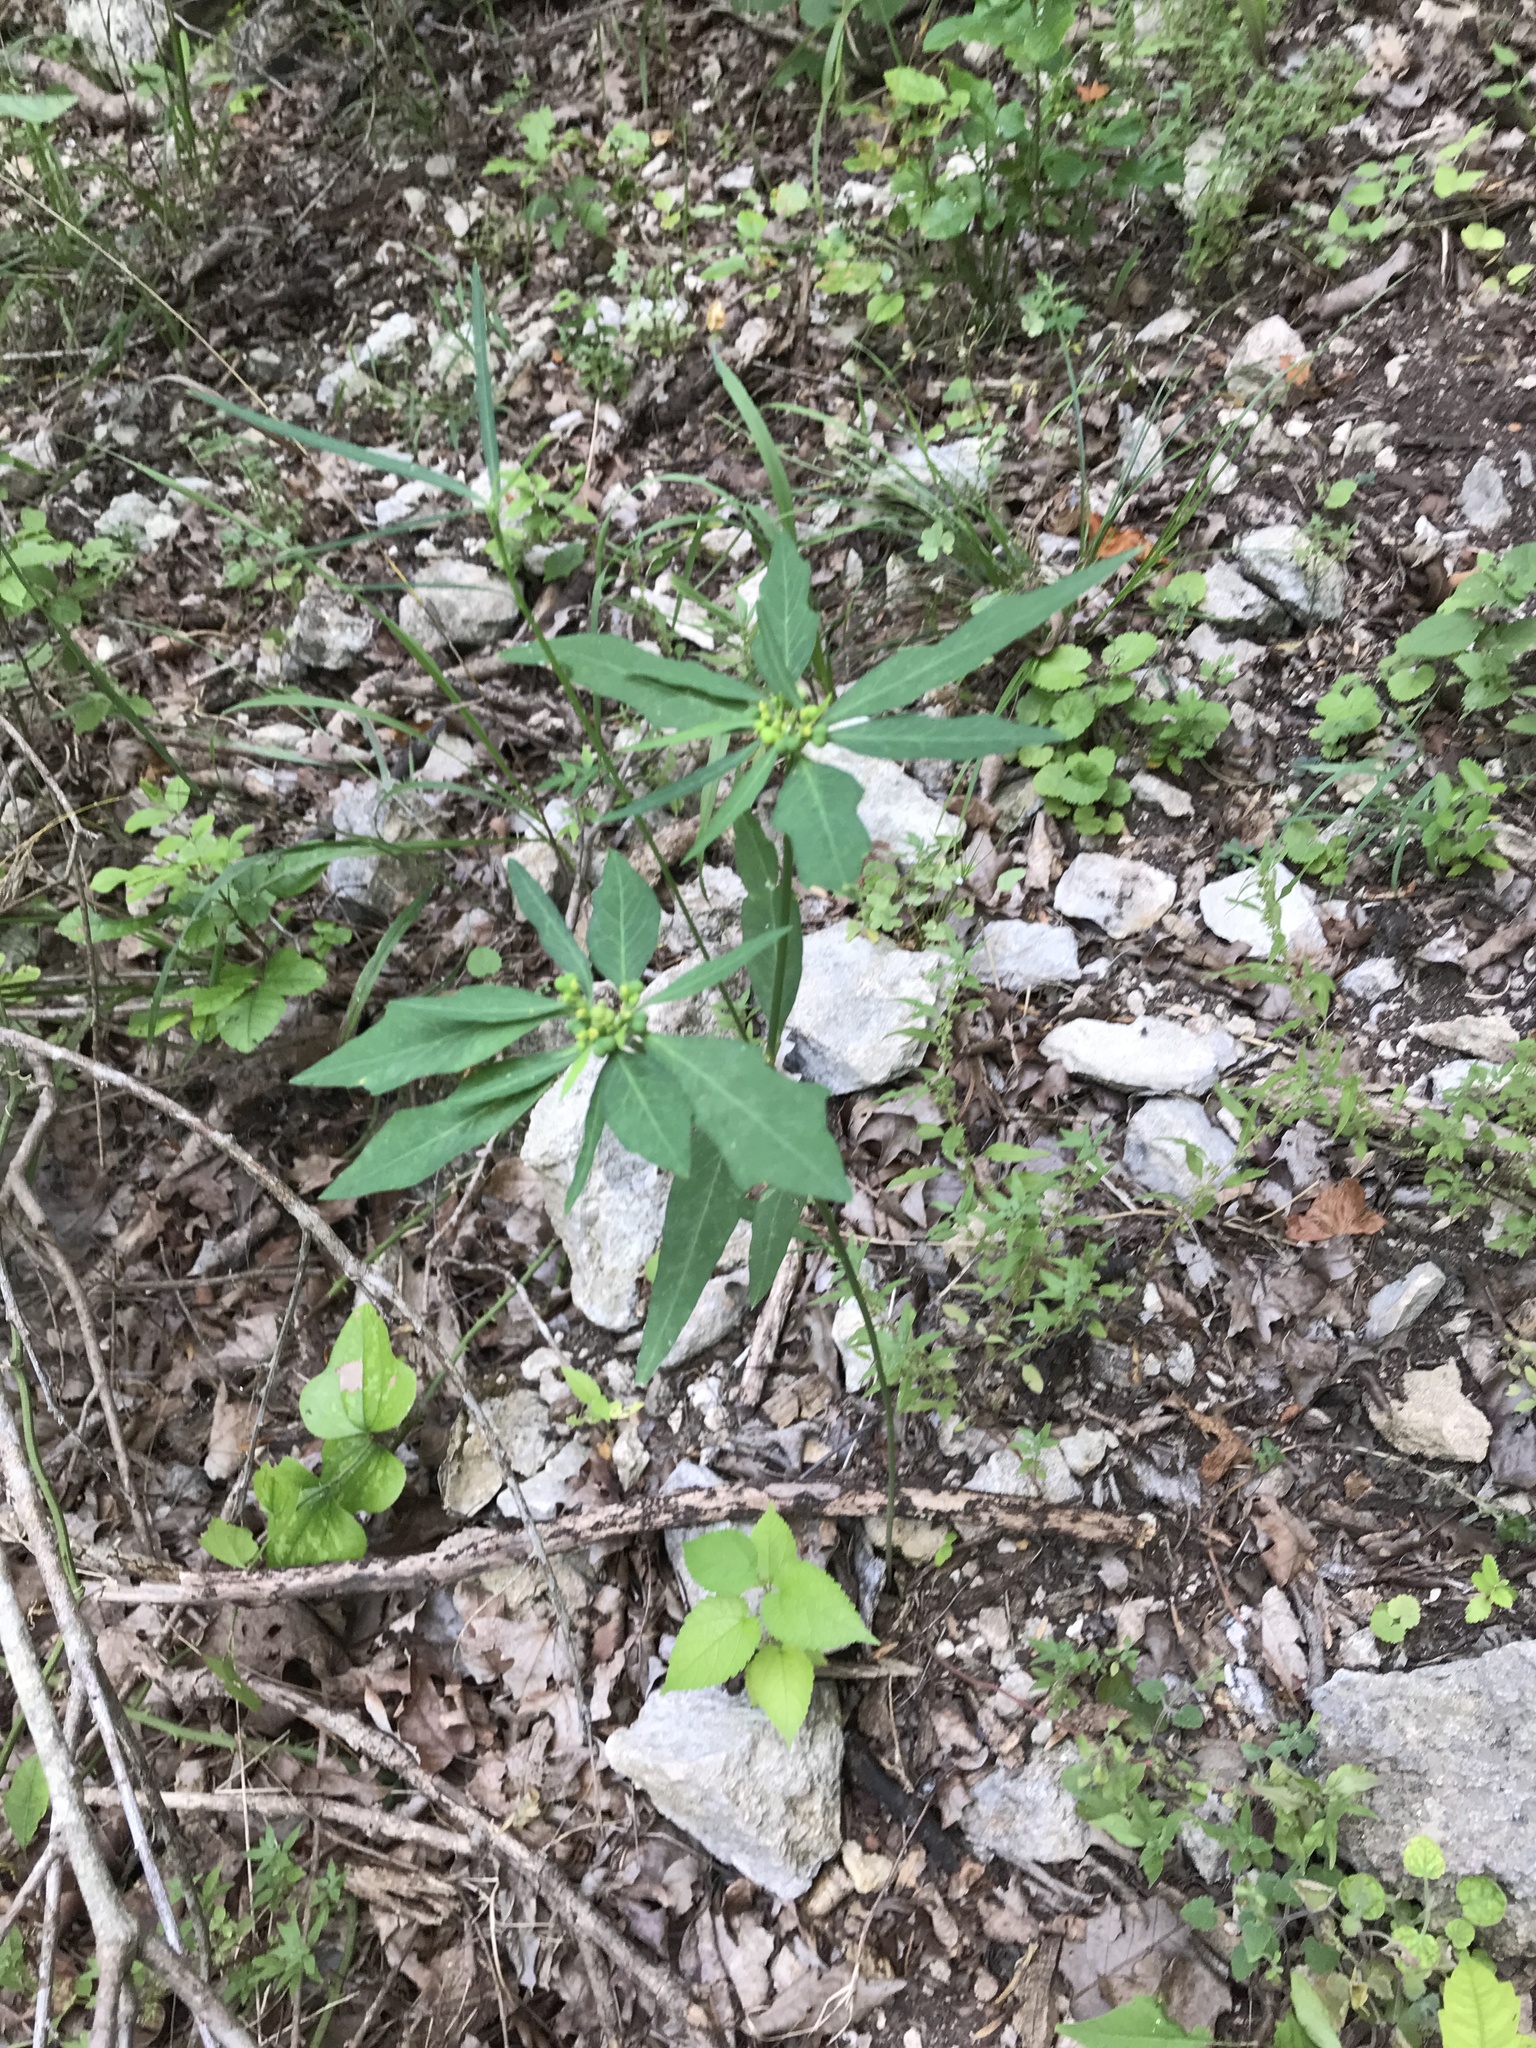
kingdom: Plantae
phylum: Tracheophyta
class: Magnoliopsida
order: Malpighiales
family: Euphorbiaceae
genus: Euphorbia
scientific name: Euphorbia heterophylla
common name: Mexican fireplant
